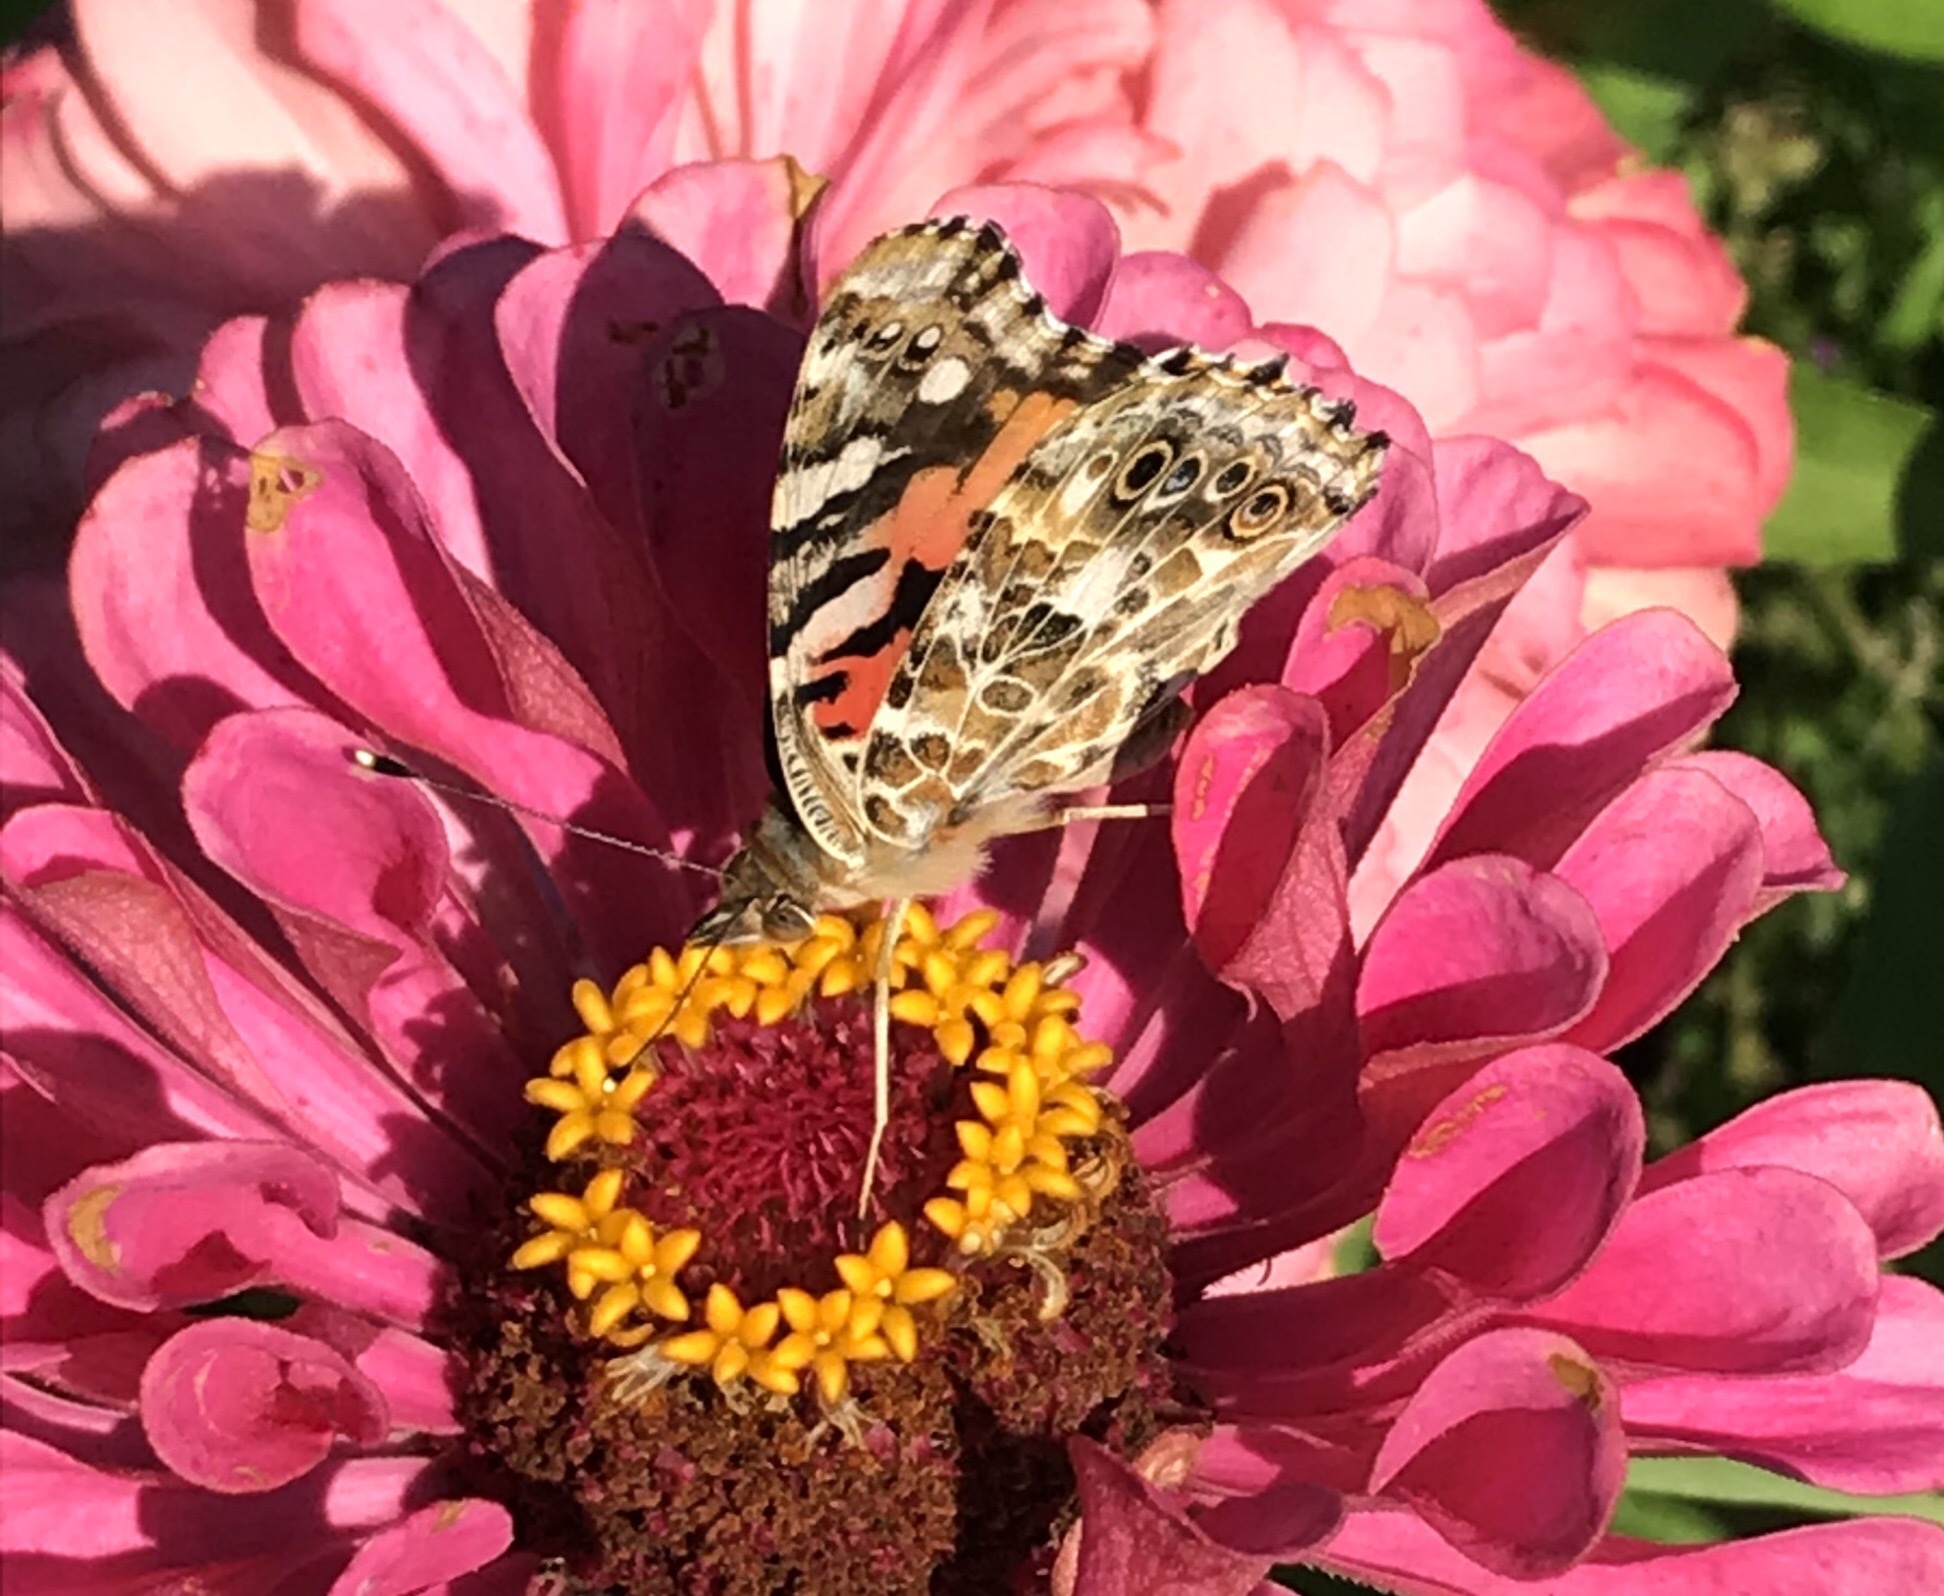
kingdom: Animalia
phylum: Arthropoda
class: Insecta
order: Lepidoptera
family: Nymphalidae
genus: Vanessa
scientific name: Vanessa cardui
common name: Painted lady
